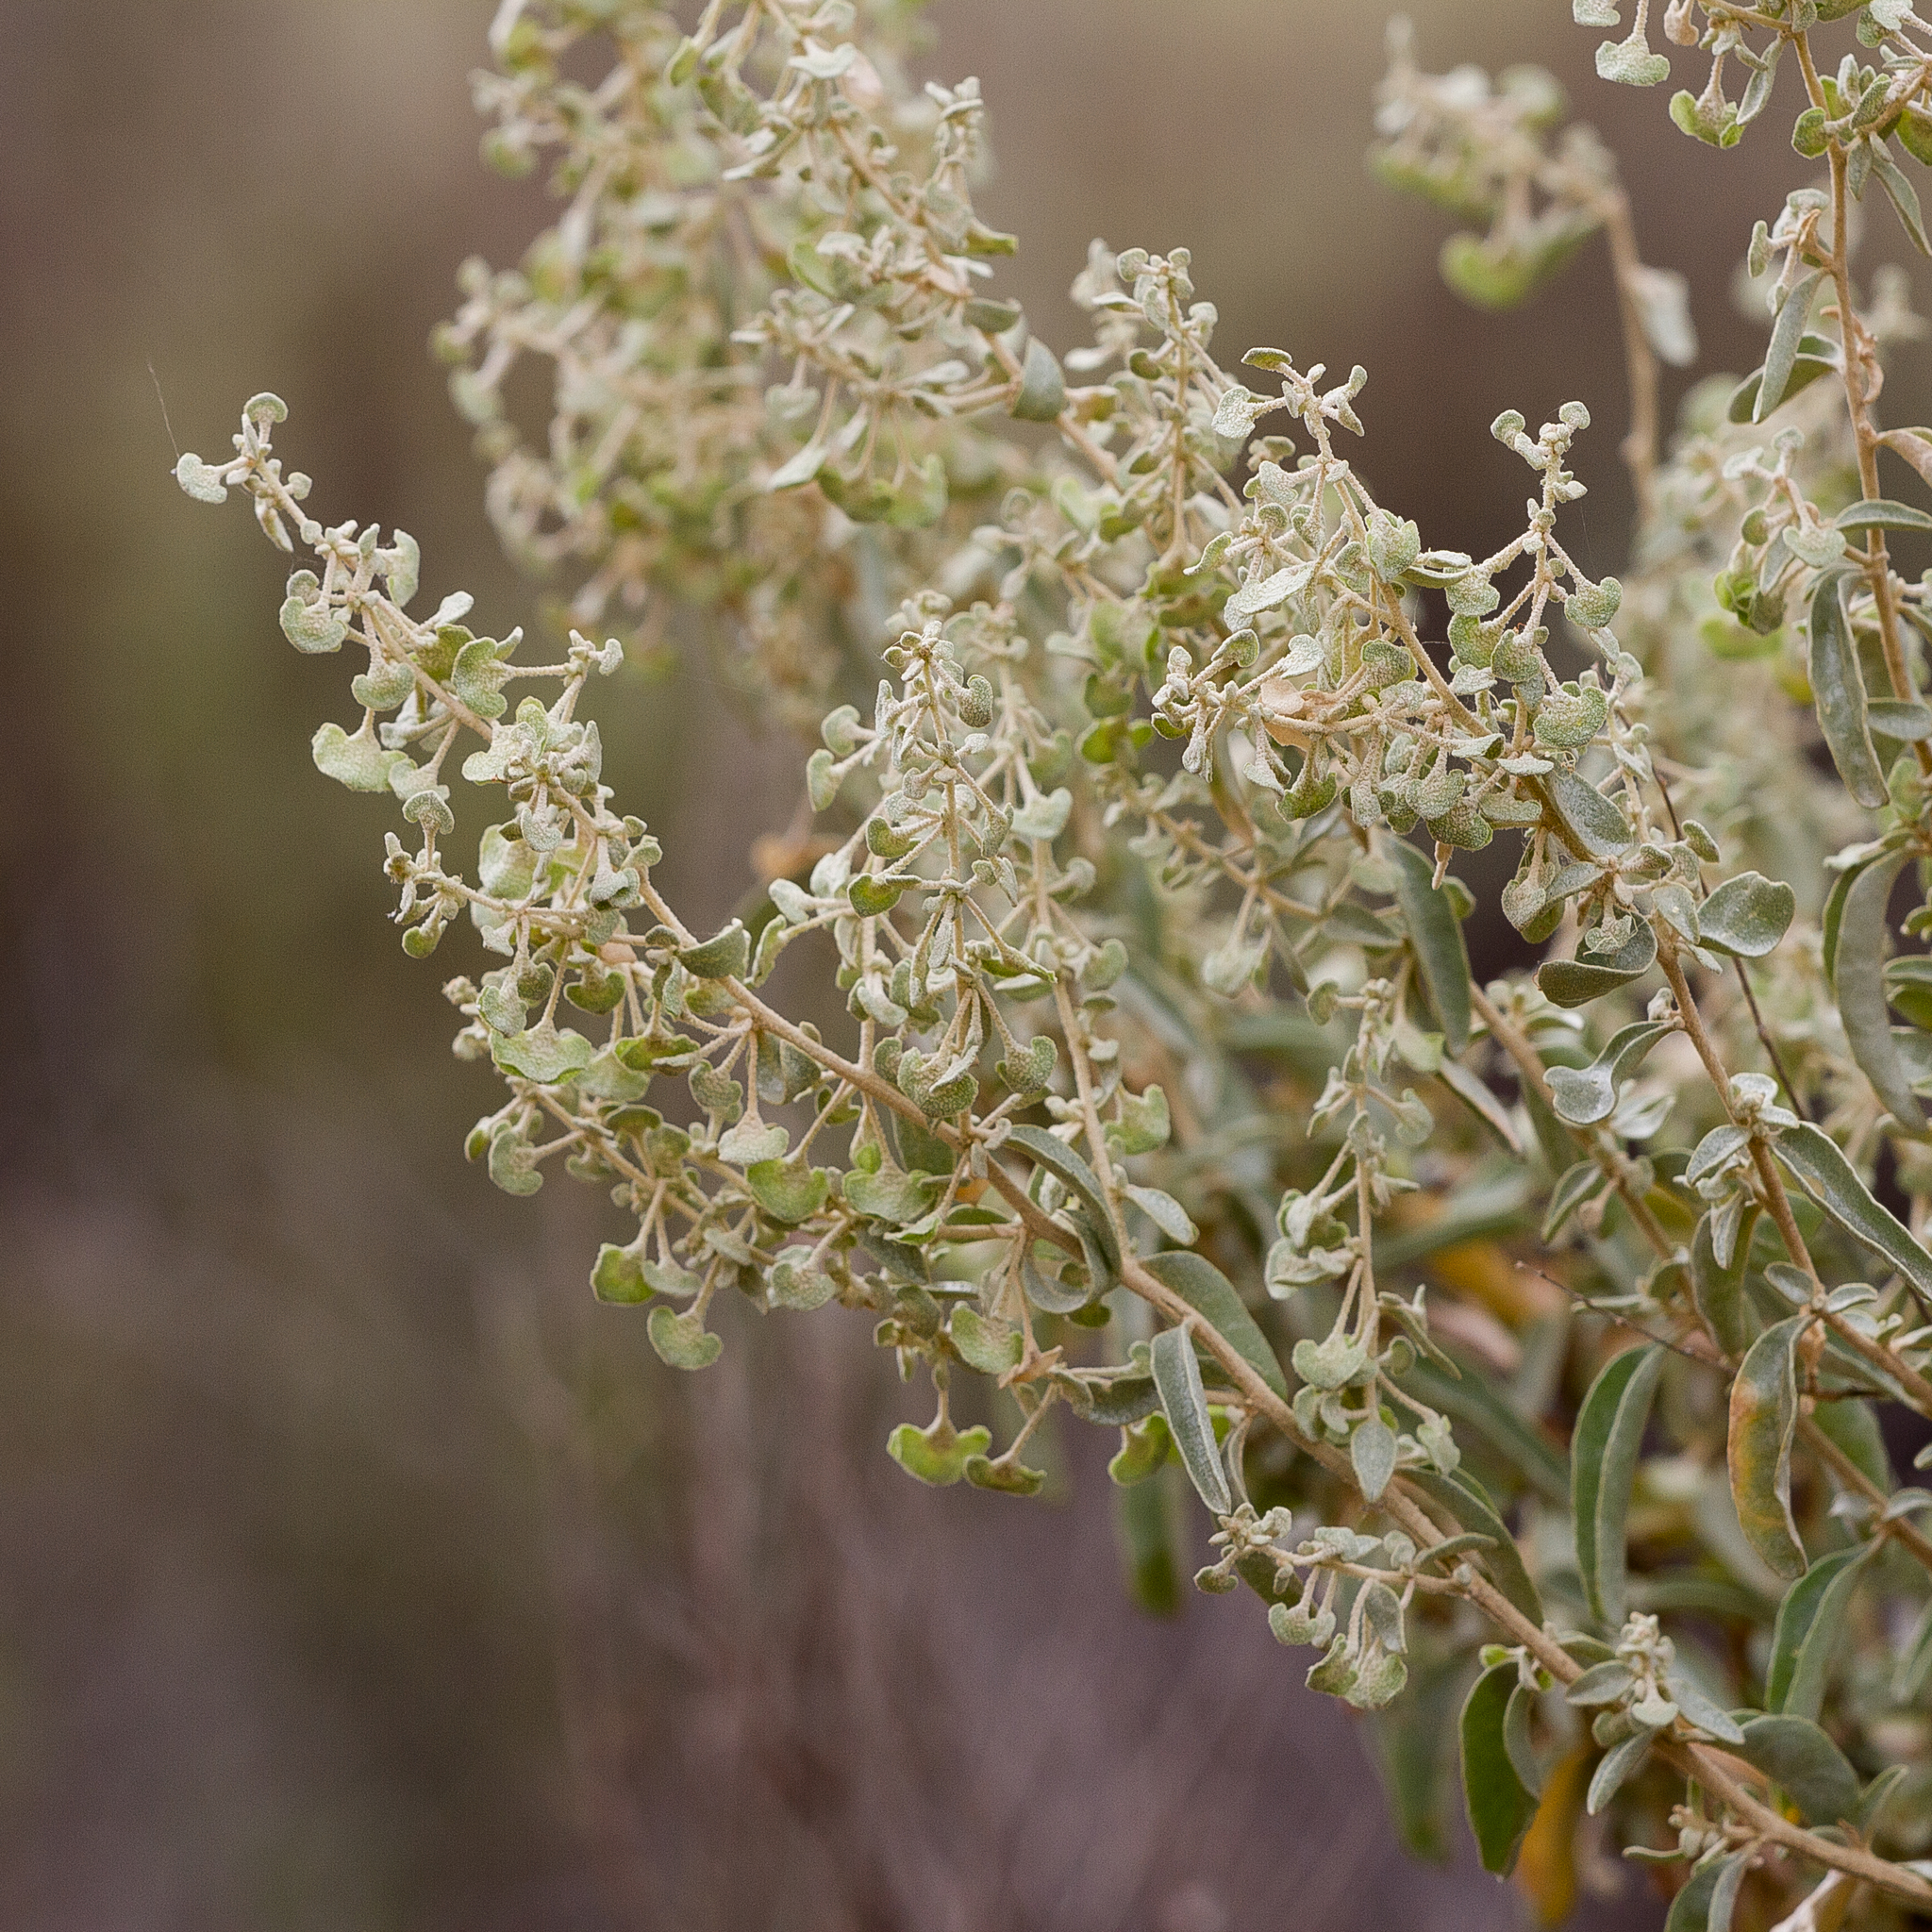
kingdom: Plantae
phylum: Tracheophyta
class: Magnoliopsida
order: Caryophyllales
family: Amaranthaceae
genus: Atriplex
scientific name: Atriplex stipitata
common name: Mallee saltbush
